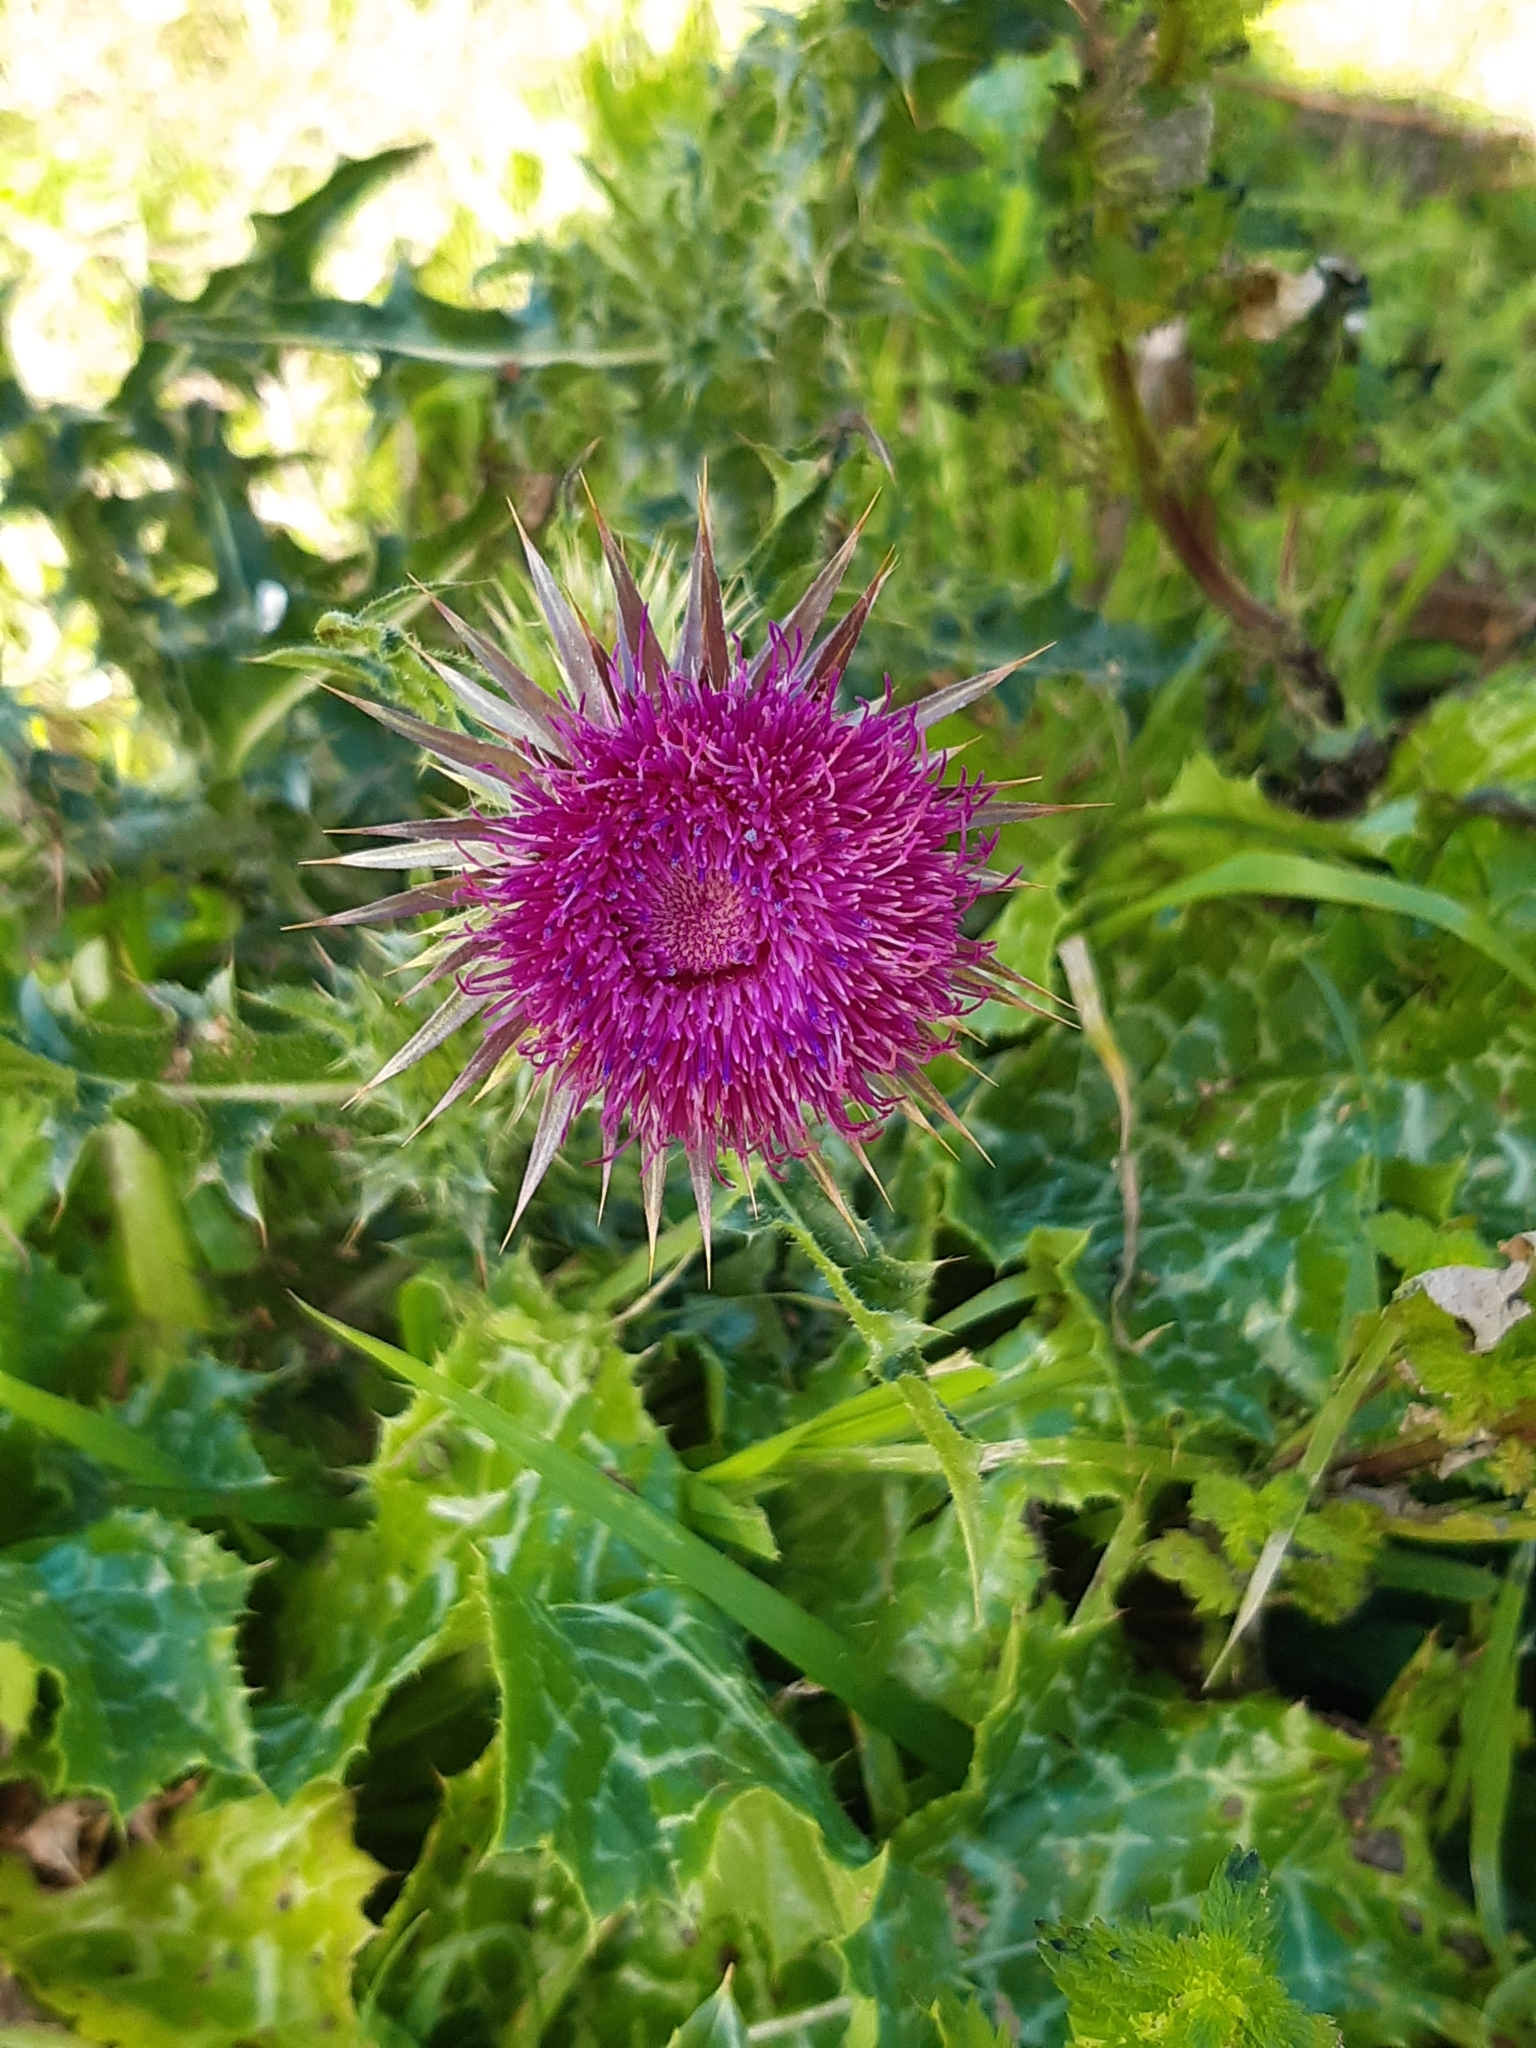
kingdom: Plantae
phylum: Tracheophyta
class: Magnoliopsida
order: Asterales
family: Asteraceae
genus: Silybum
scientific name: Silybum marianum
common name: Milk thistle
